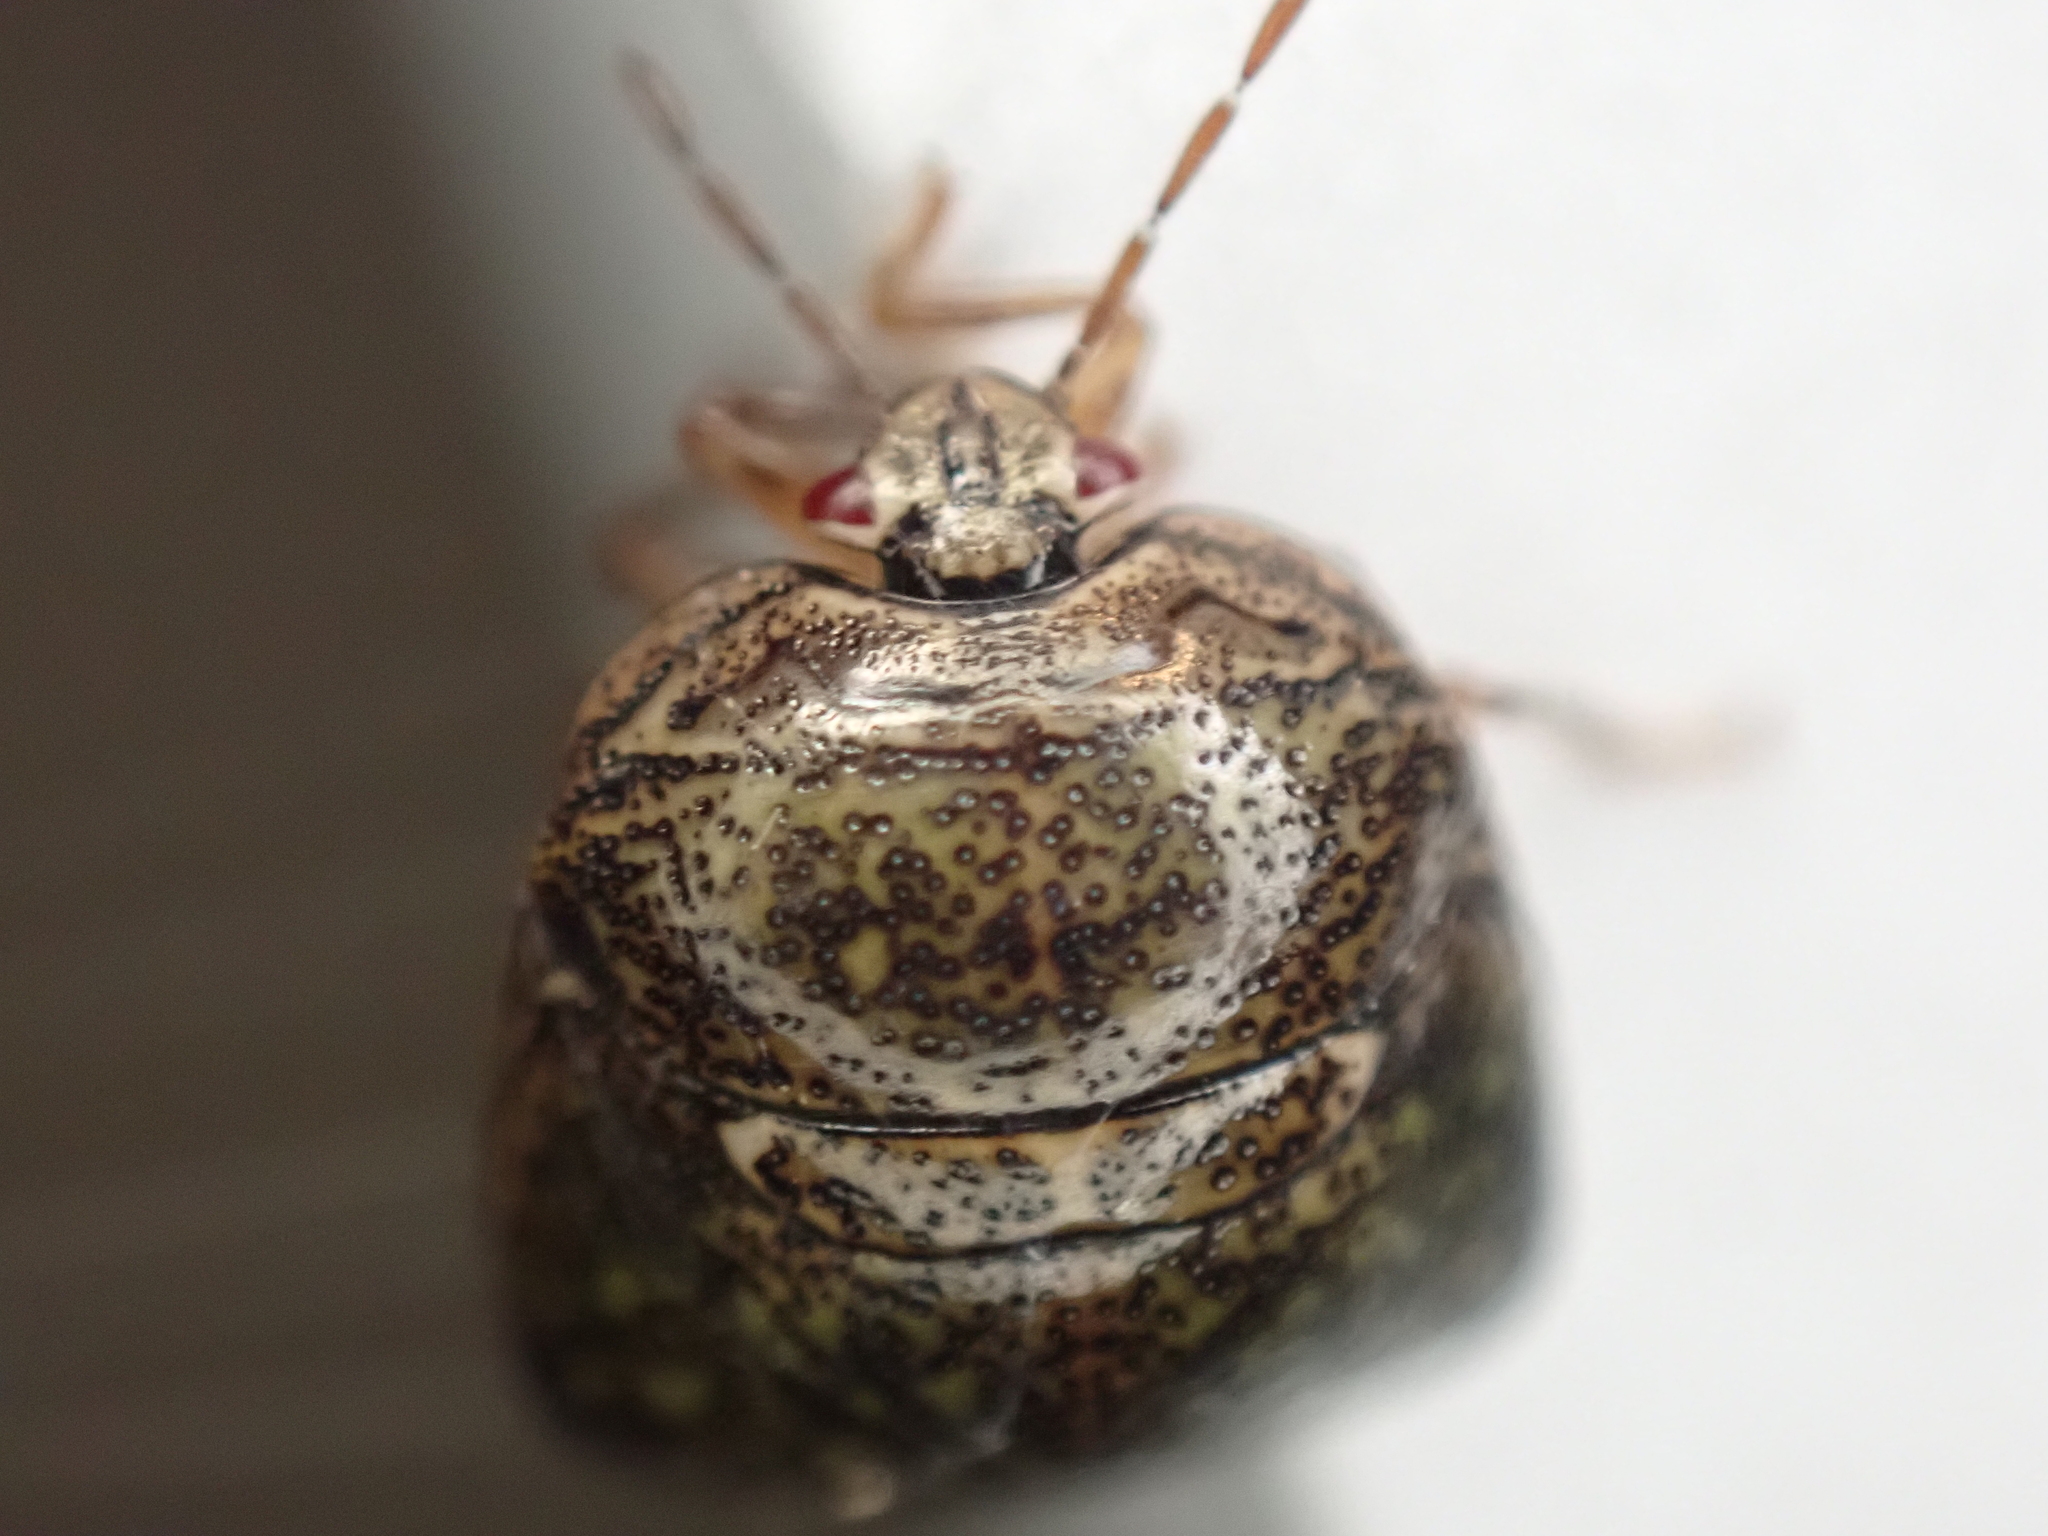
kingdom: Animalia
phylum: Arthropoda
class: Insecta
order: Hemiptera
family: Plataspidae
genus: Megacopta
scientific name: Megacopta cribraria
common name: Bean plataspid
